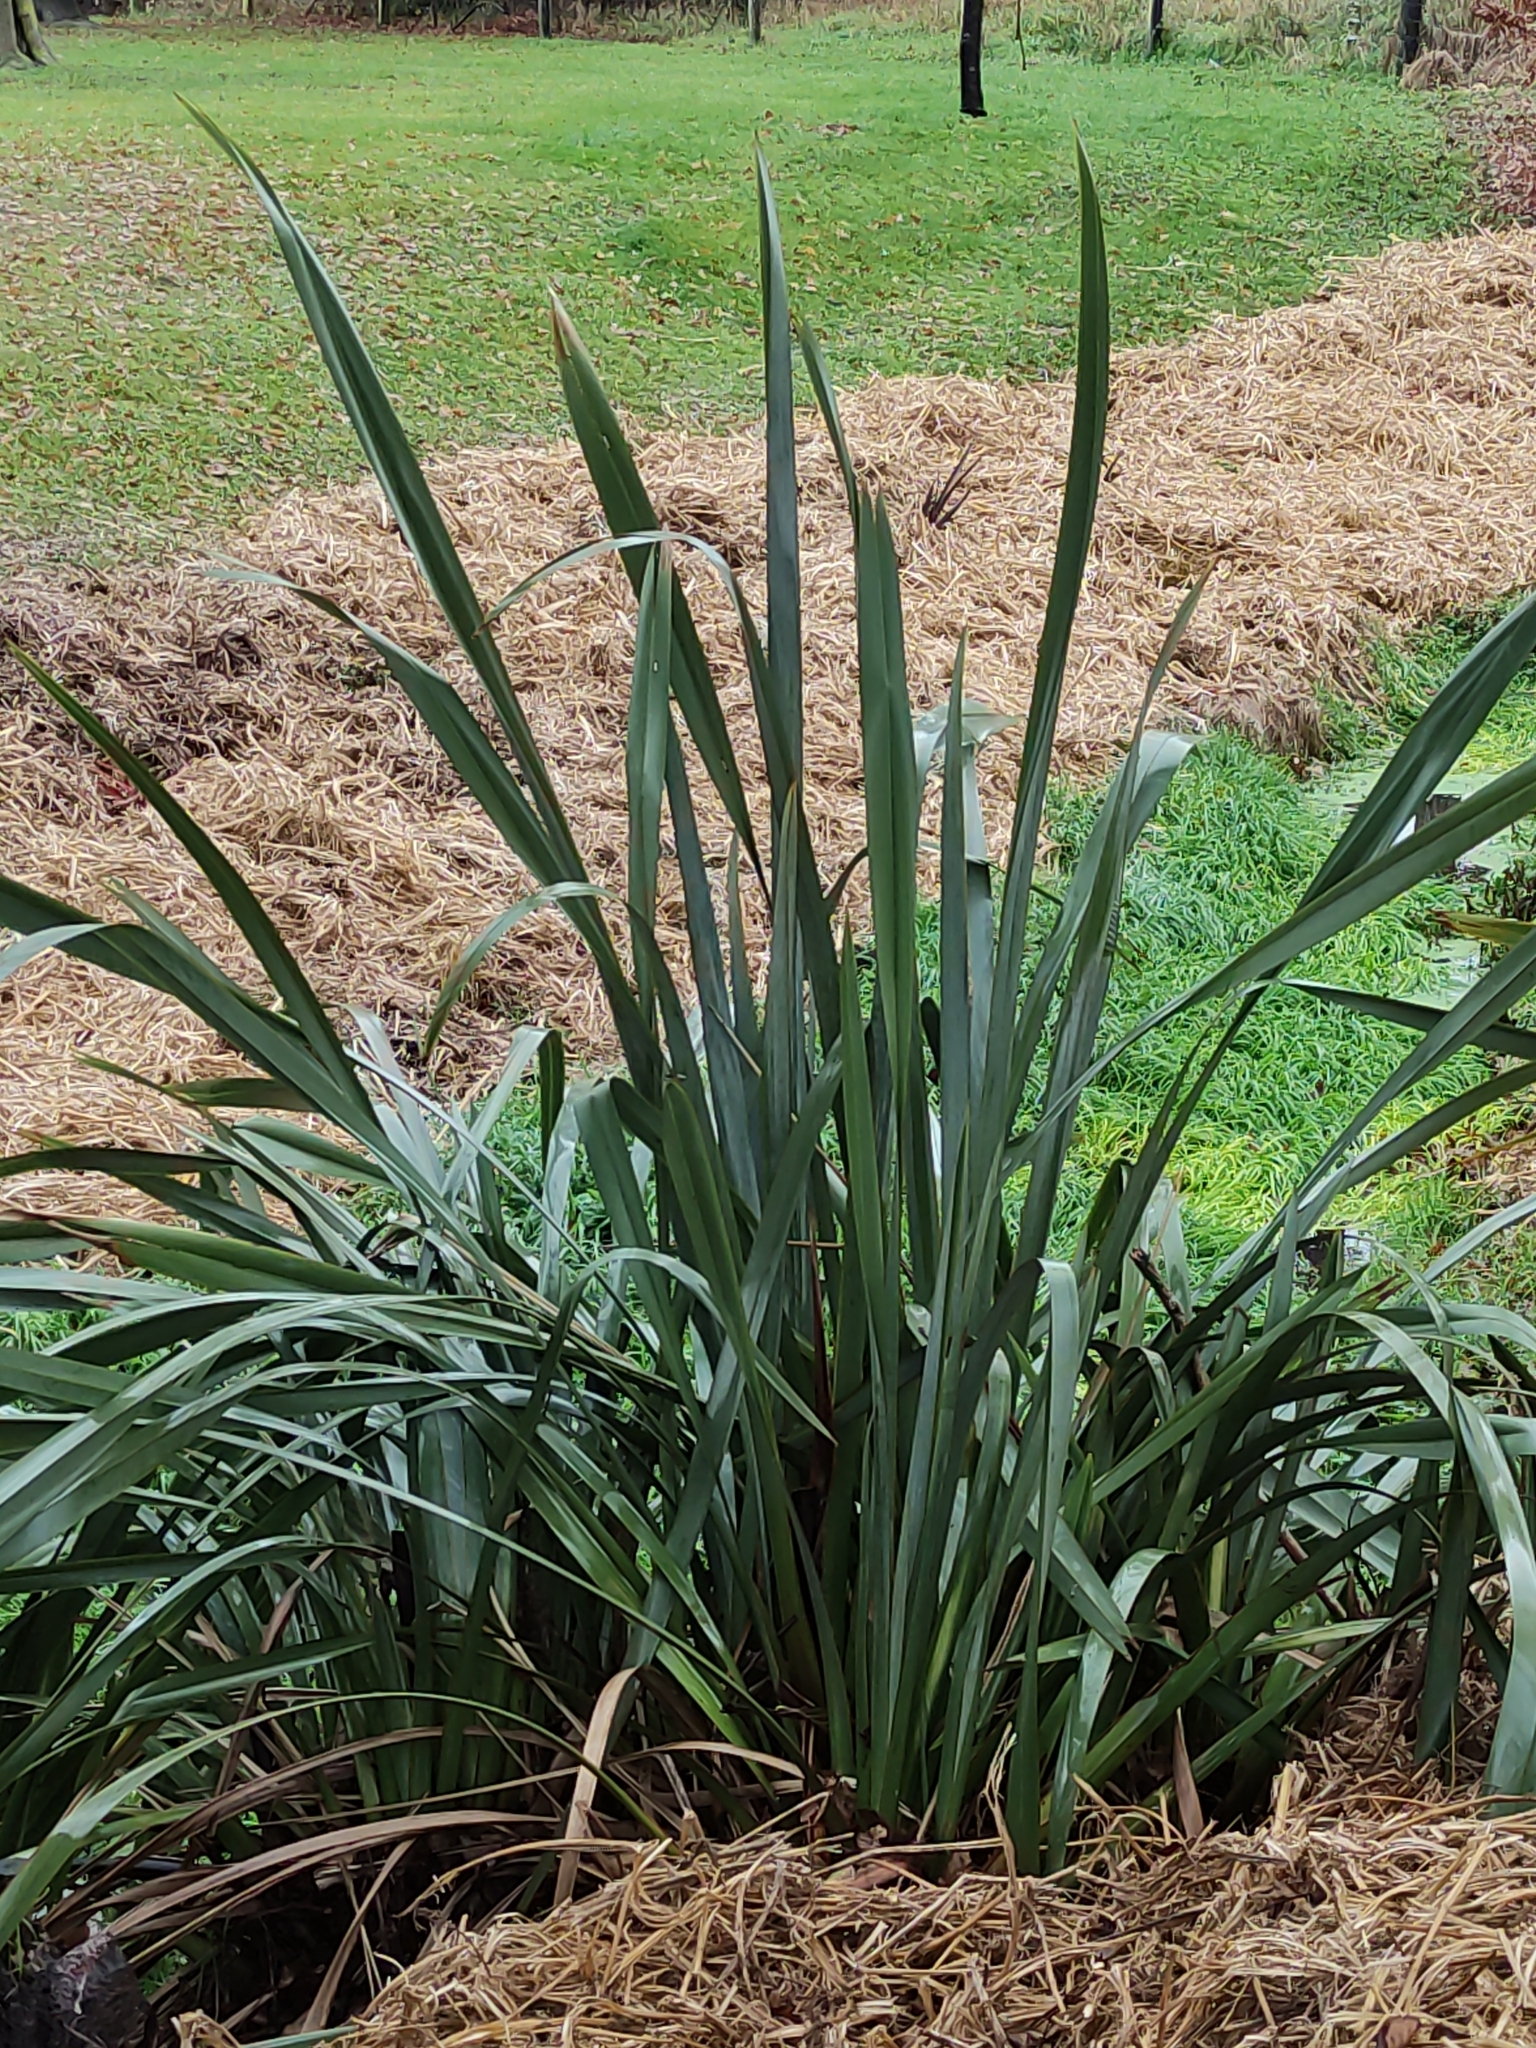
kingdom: Plantae
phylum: Tracheophyta
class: Liliopsida
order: Asparagales
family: Asphodelaceae
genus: Phormium
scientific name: Phormium tenax
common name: New zealand flax
